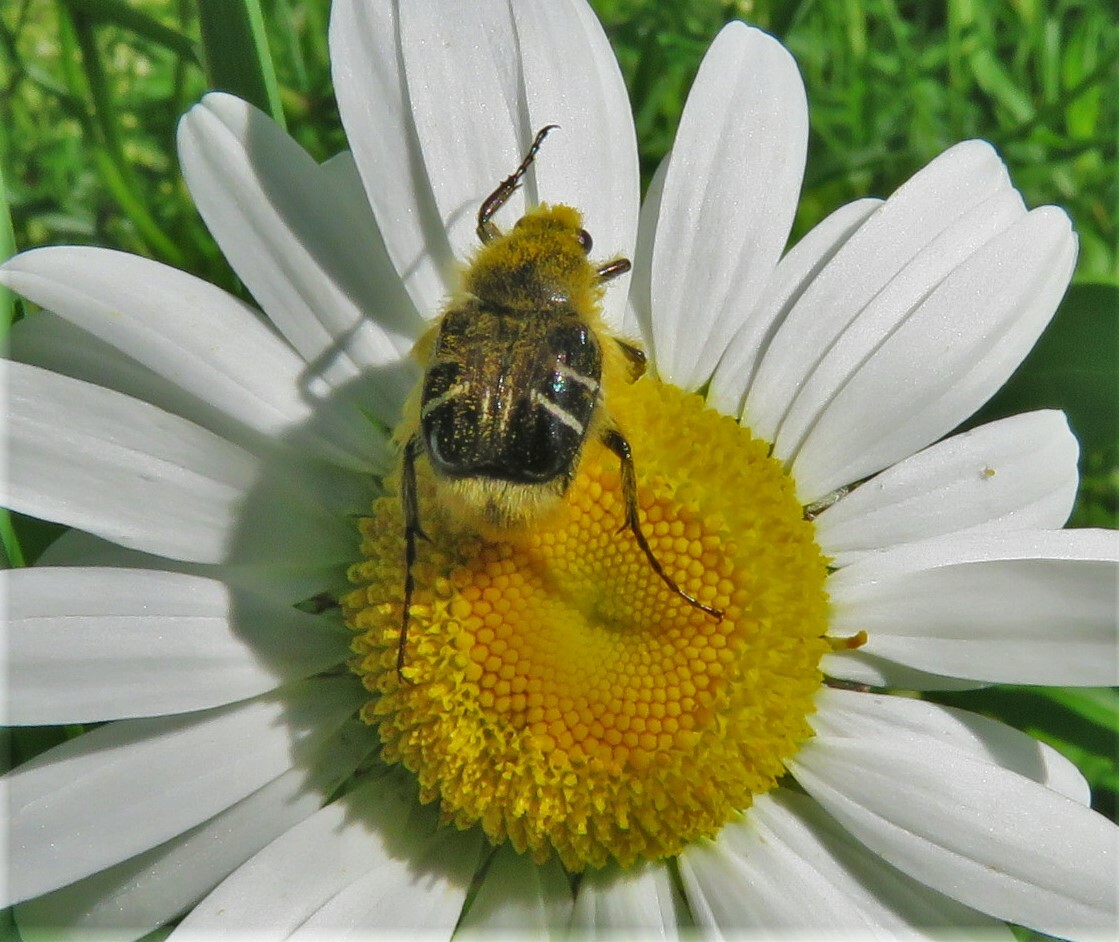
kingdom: Animalia
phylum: Arthropoda
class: Insecta
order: Coleoptera
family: Scarabaeidae
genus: Trichiotinus
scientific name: Trichiotinus assimilis
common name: Bee-mimic beetle
